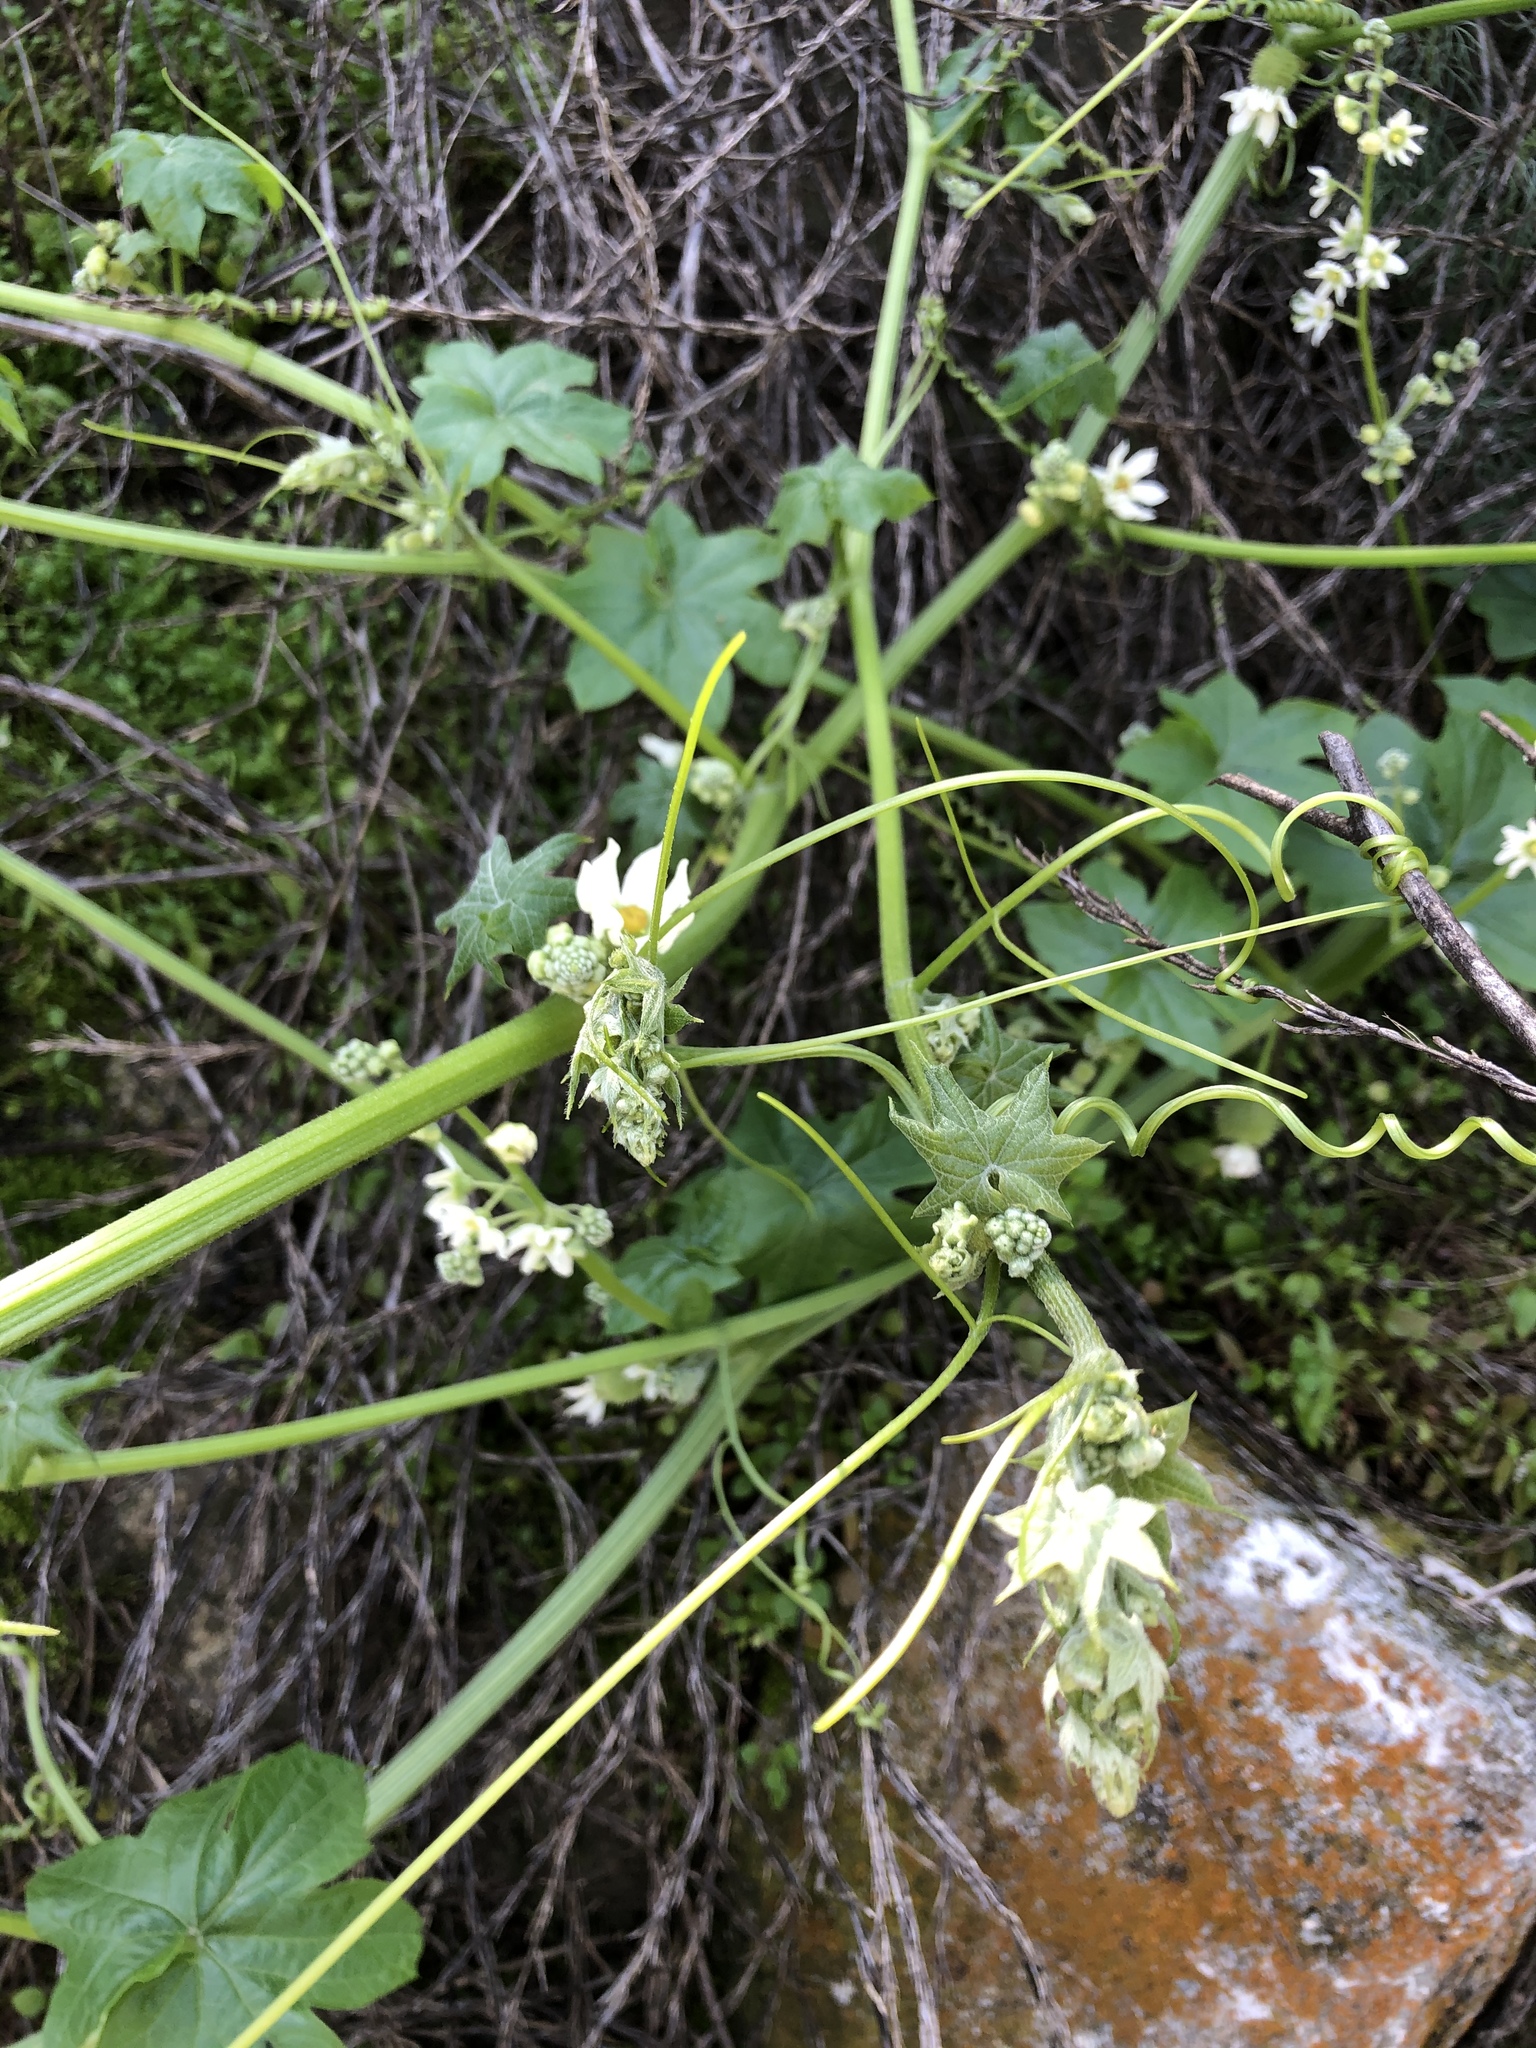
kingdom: Plantae
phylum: Tracheophyta
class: Magnoliopsida
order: Cucurbitales
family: Cucurbitaceae
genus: Marah
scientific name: Marah macrocarpa
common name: Cucamonga manroot
